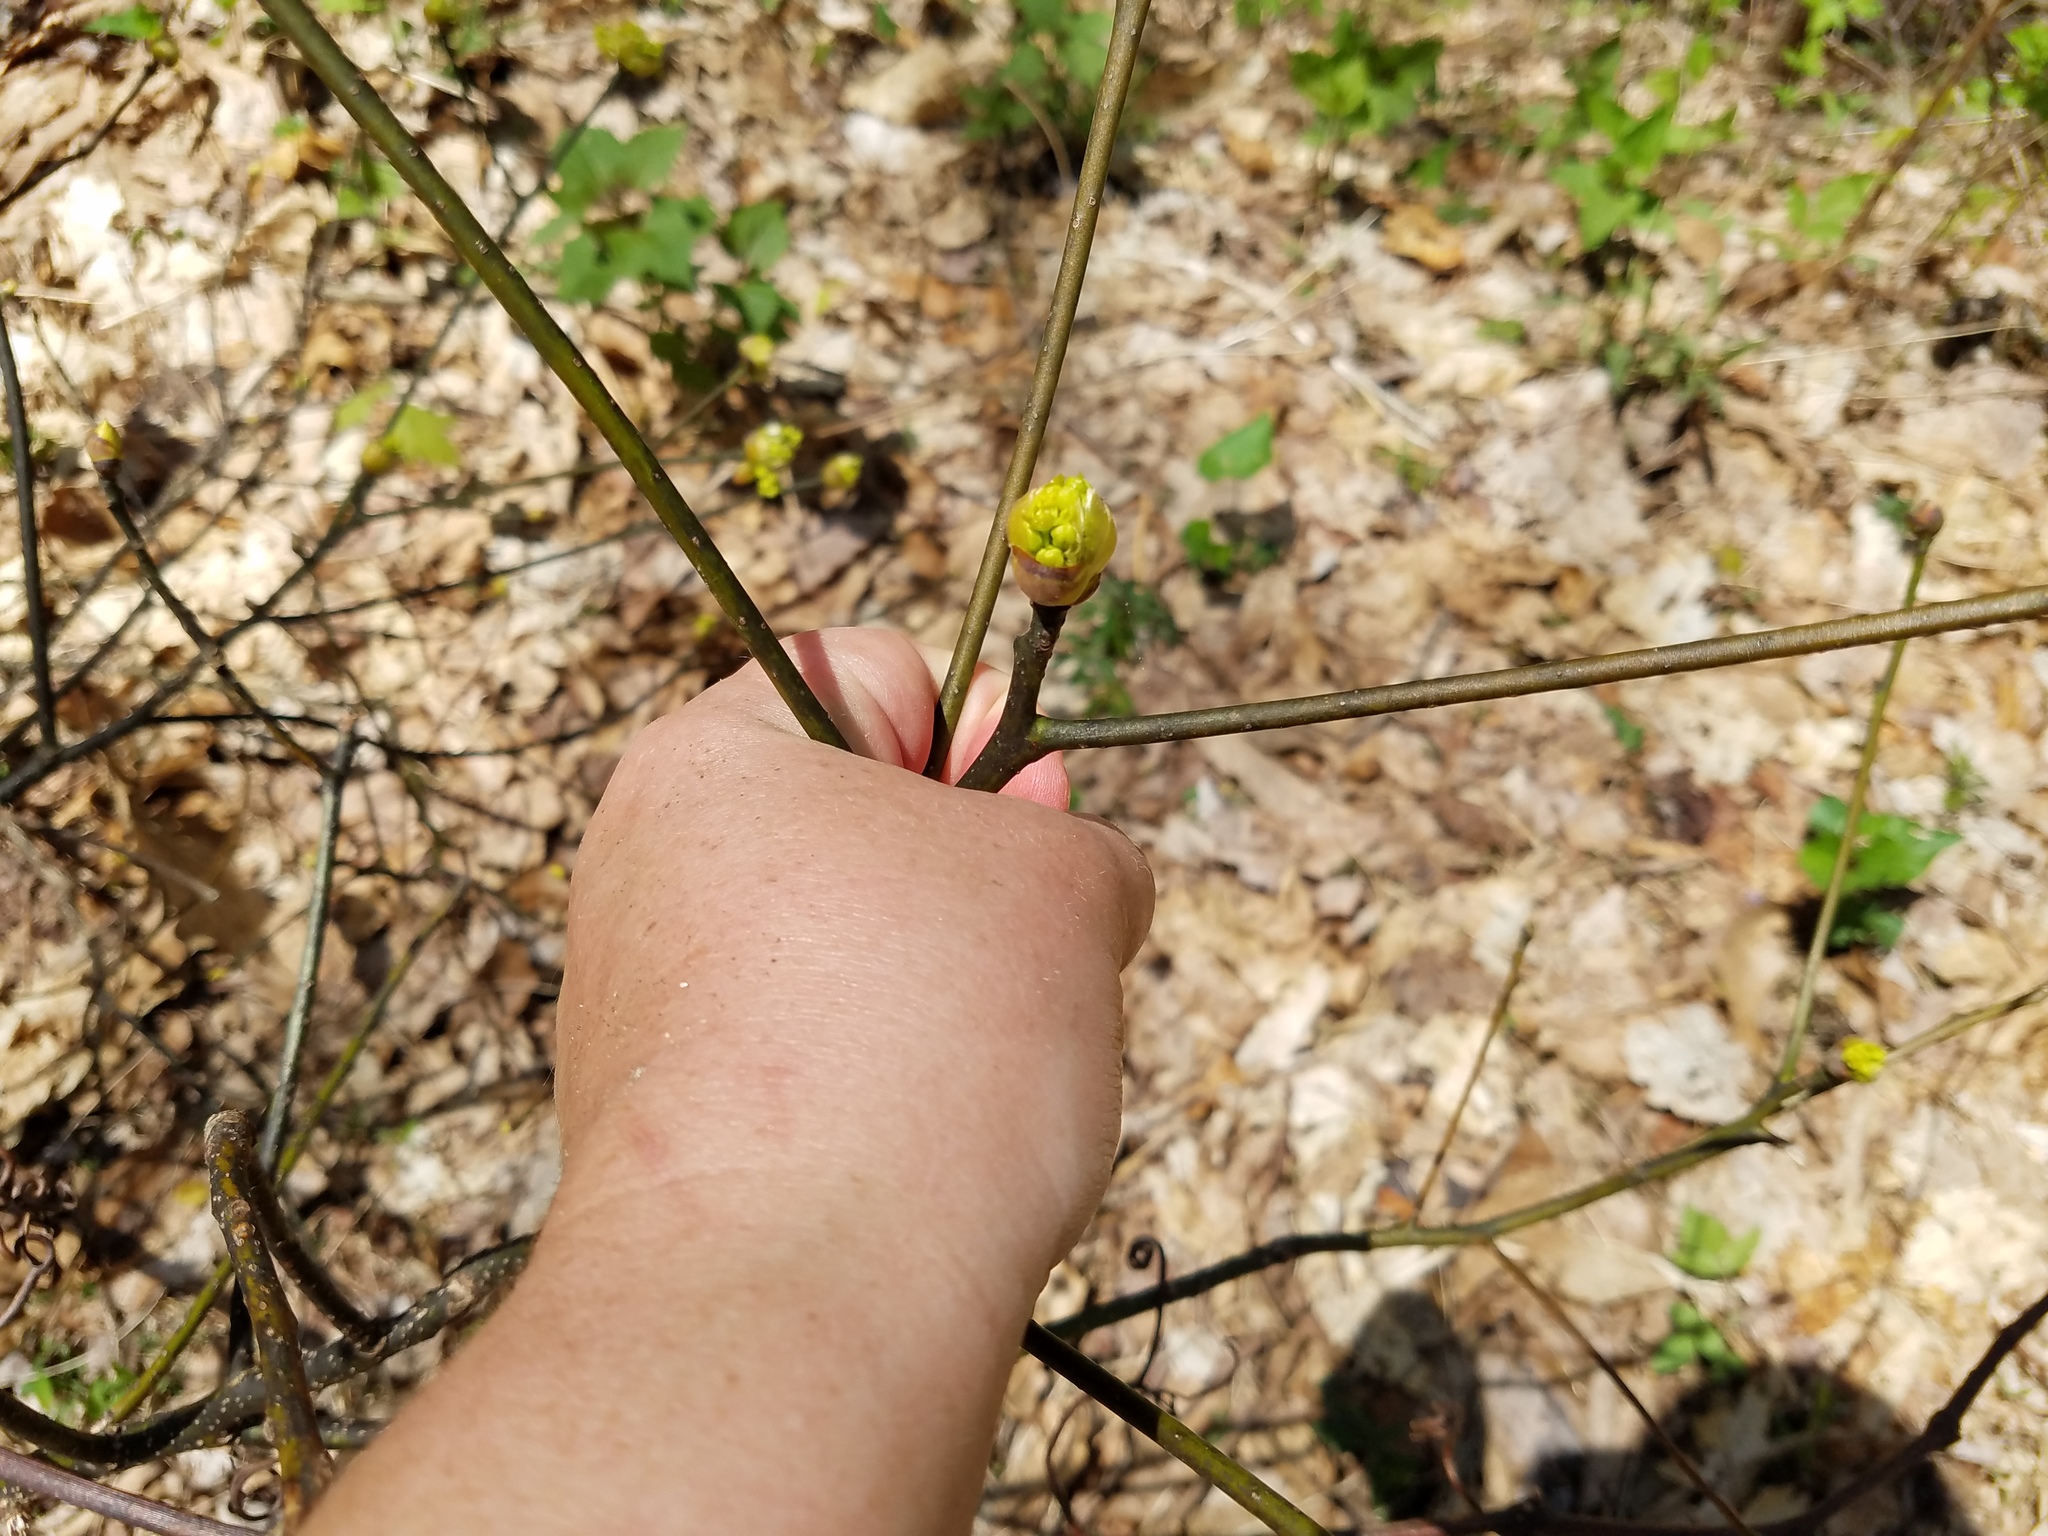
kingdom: Plantae
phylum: Tracheophyta
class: Magnoliopsida
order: Laurales
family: Lauraceae
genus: Sassafras
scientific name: Sassafras albidum
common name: Sassafras
